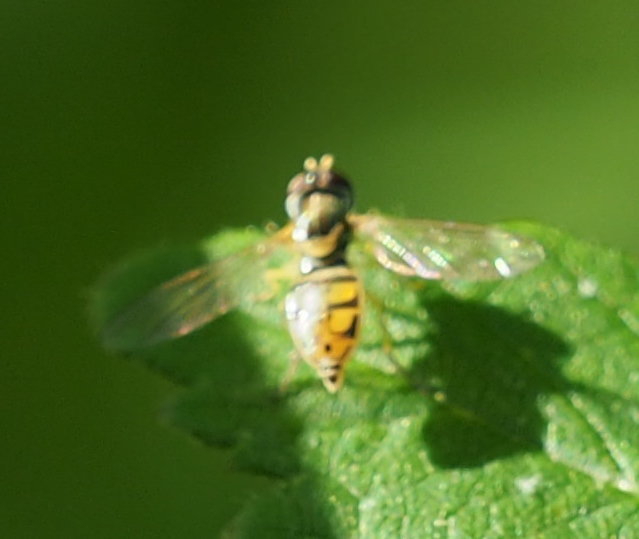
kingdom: Animalia
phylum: Arthropoda
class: Insecta
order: Diptera
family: Syrphidae
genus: Toxomerus
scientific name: Toxomerus marginatus
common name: Syrphid fly
